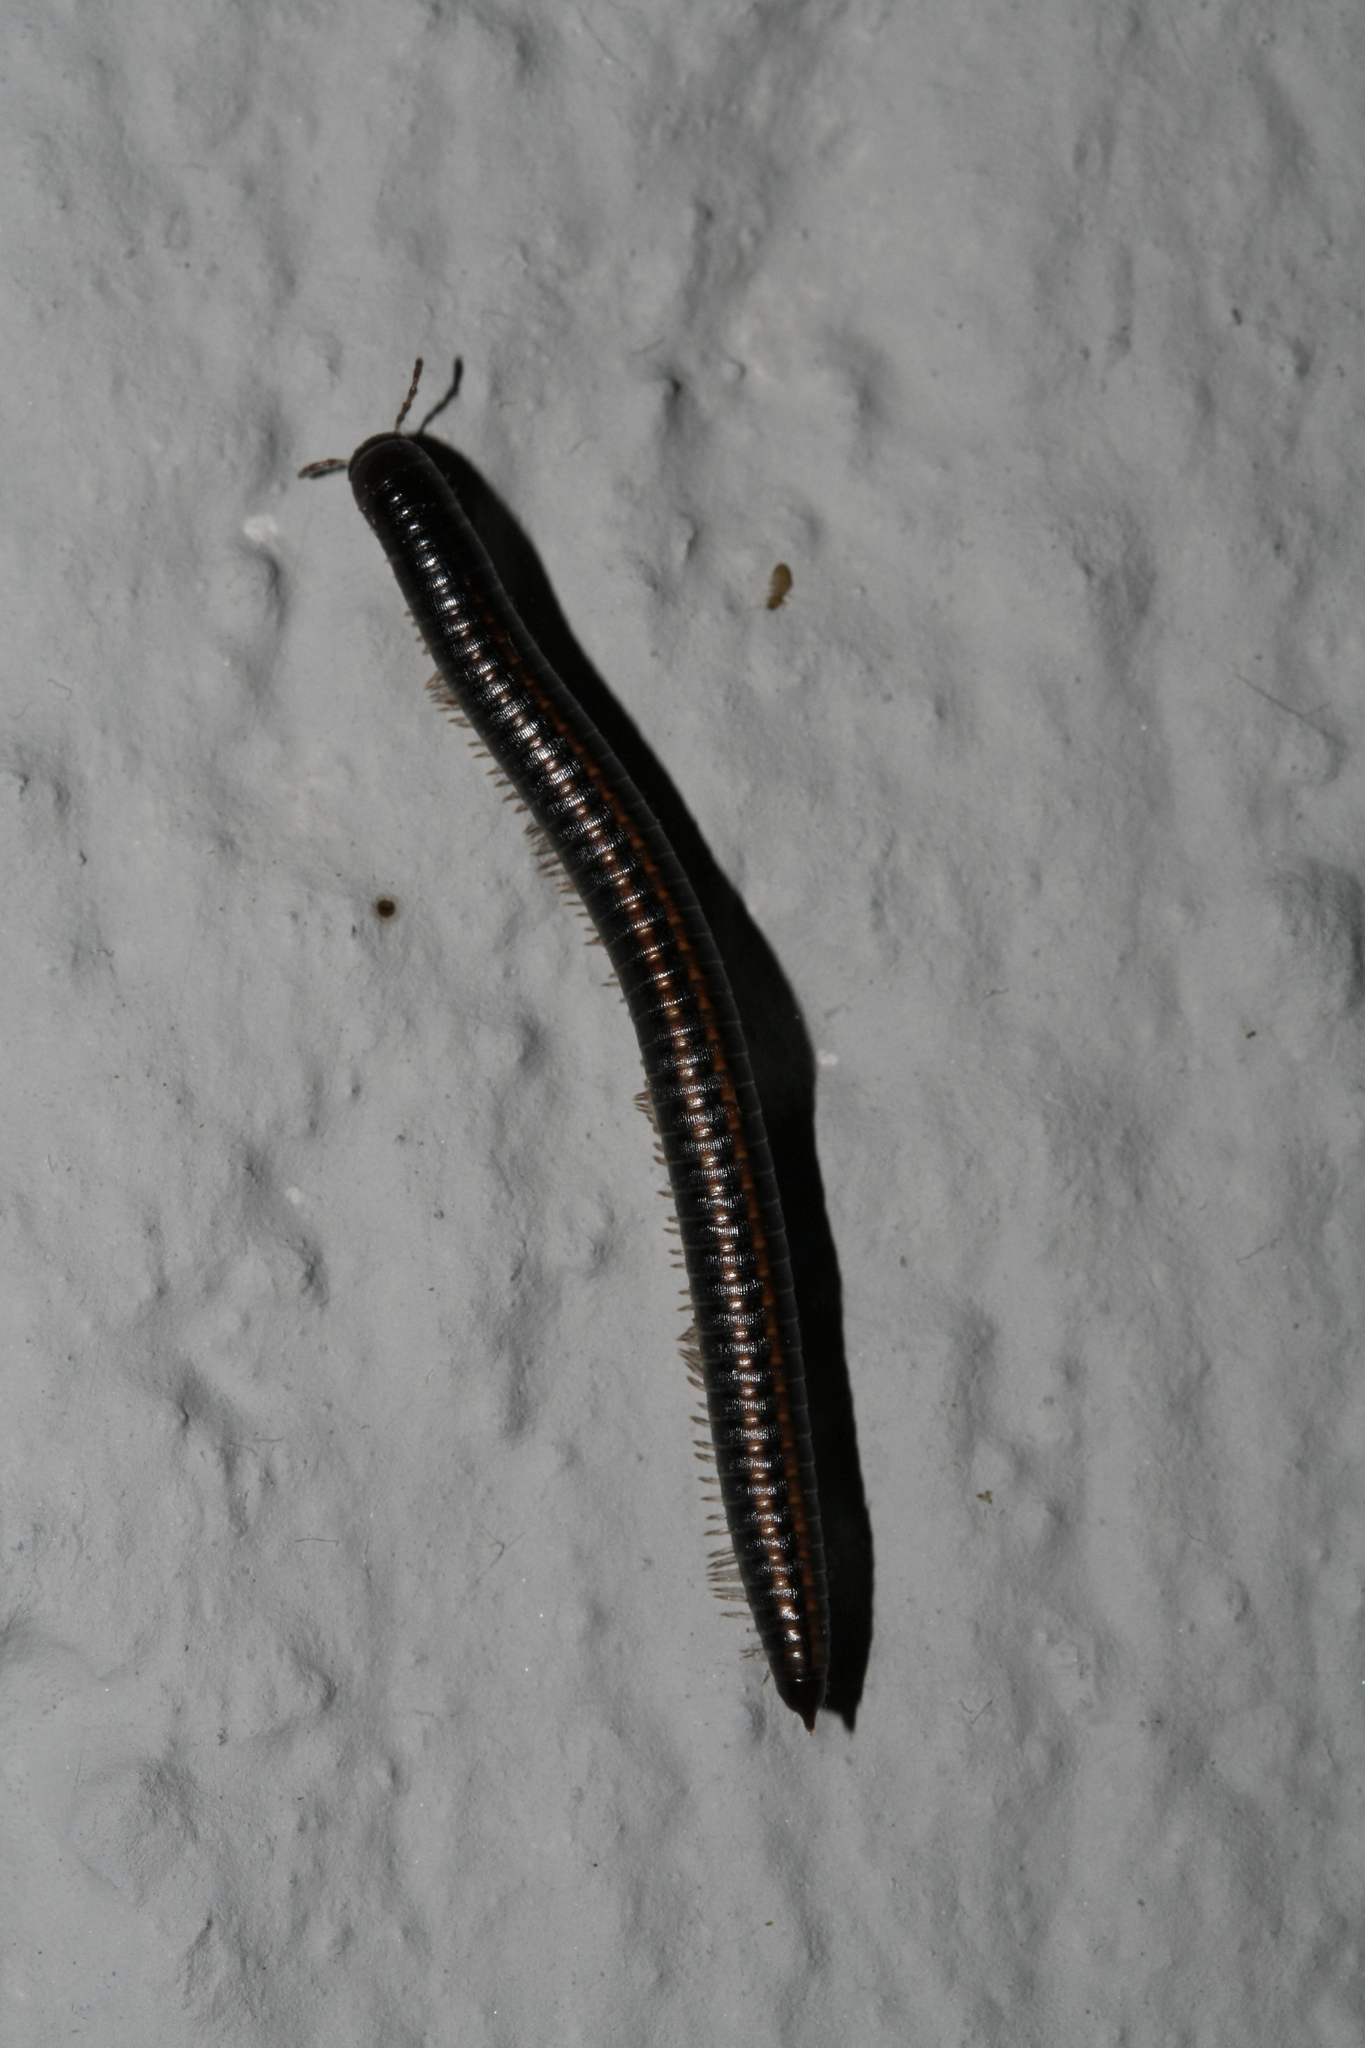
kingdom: Animalia
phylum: Arthropoda
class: Diplopoda
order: Julida
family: Julidae
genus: Ommatoiulus
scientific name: Ommatoiulus sabulosus
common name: Striped millipede
